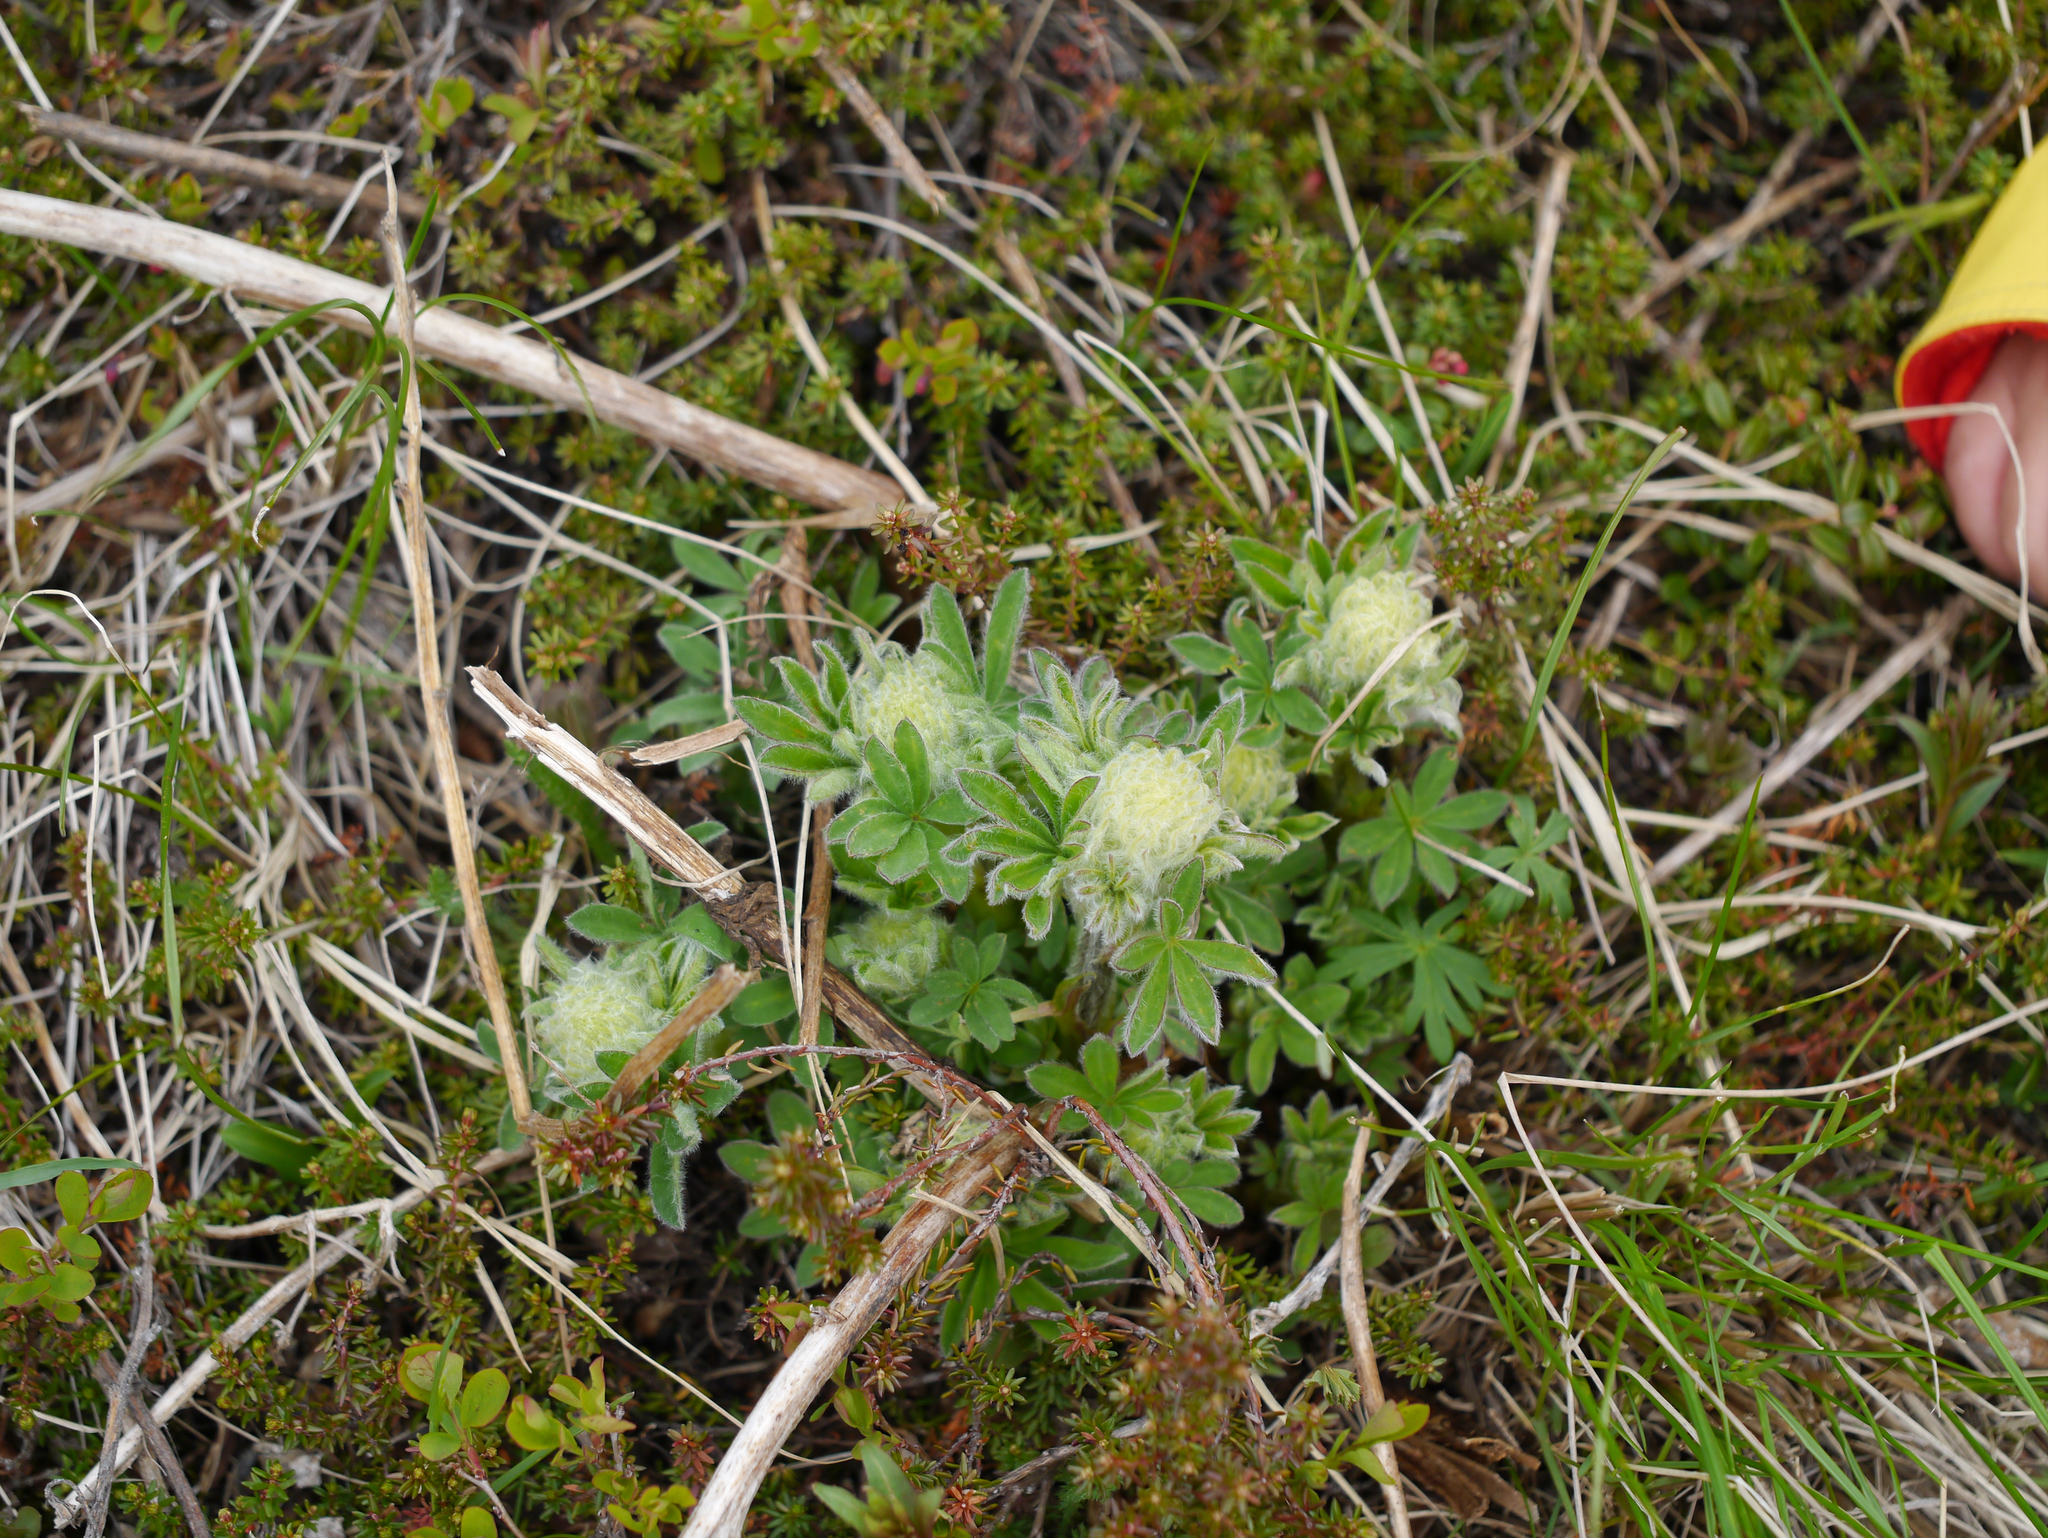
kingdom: Plantae
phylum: Tracheophyta
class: Magnoliopsida
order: Fabales
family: Fabaceae
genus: Lupinus
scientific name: Lupinus nootkatensis
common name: Nootka lupine
